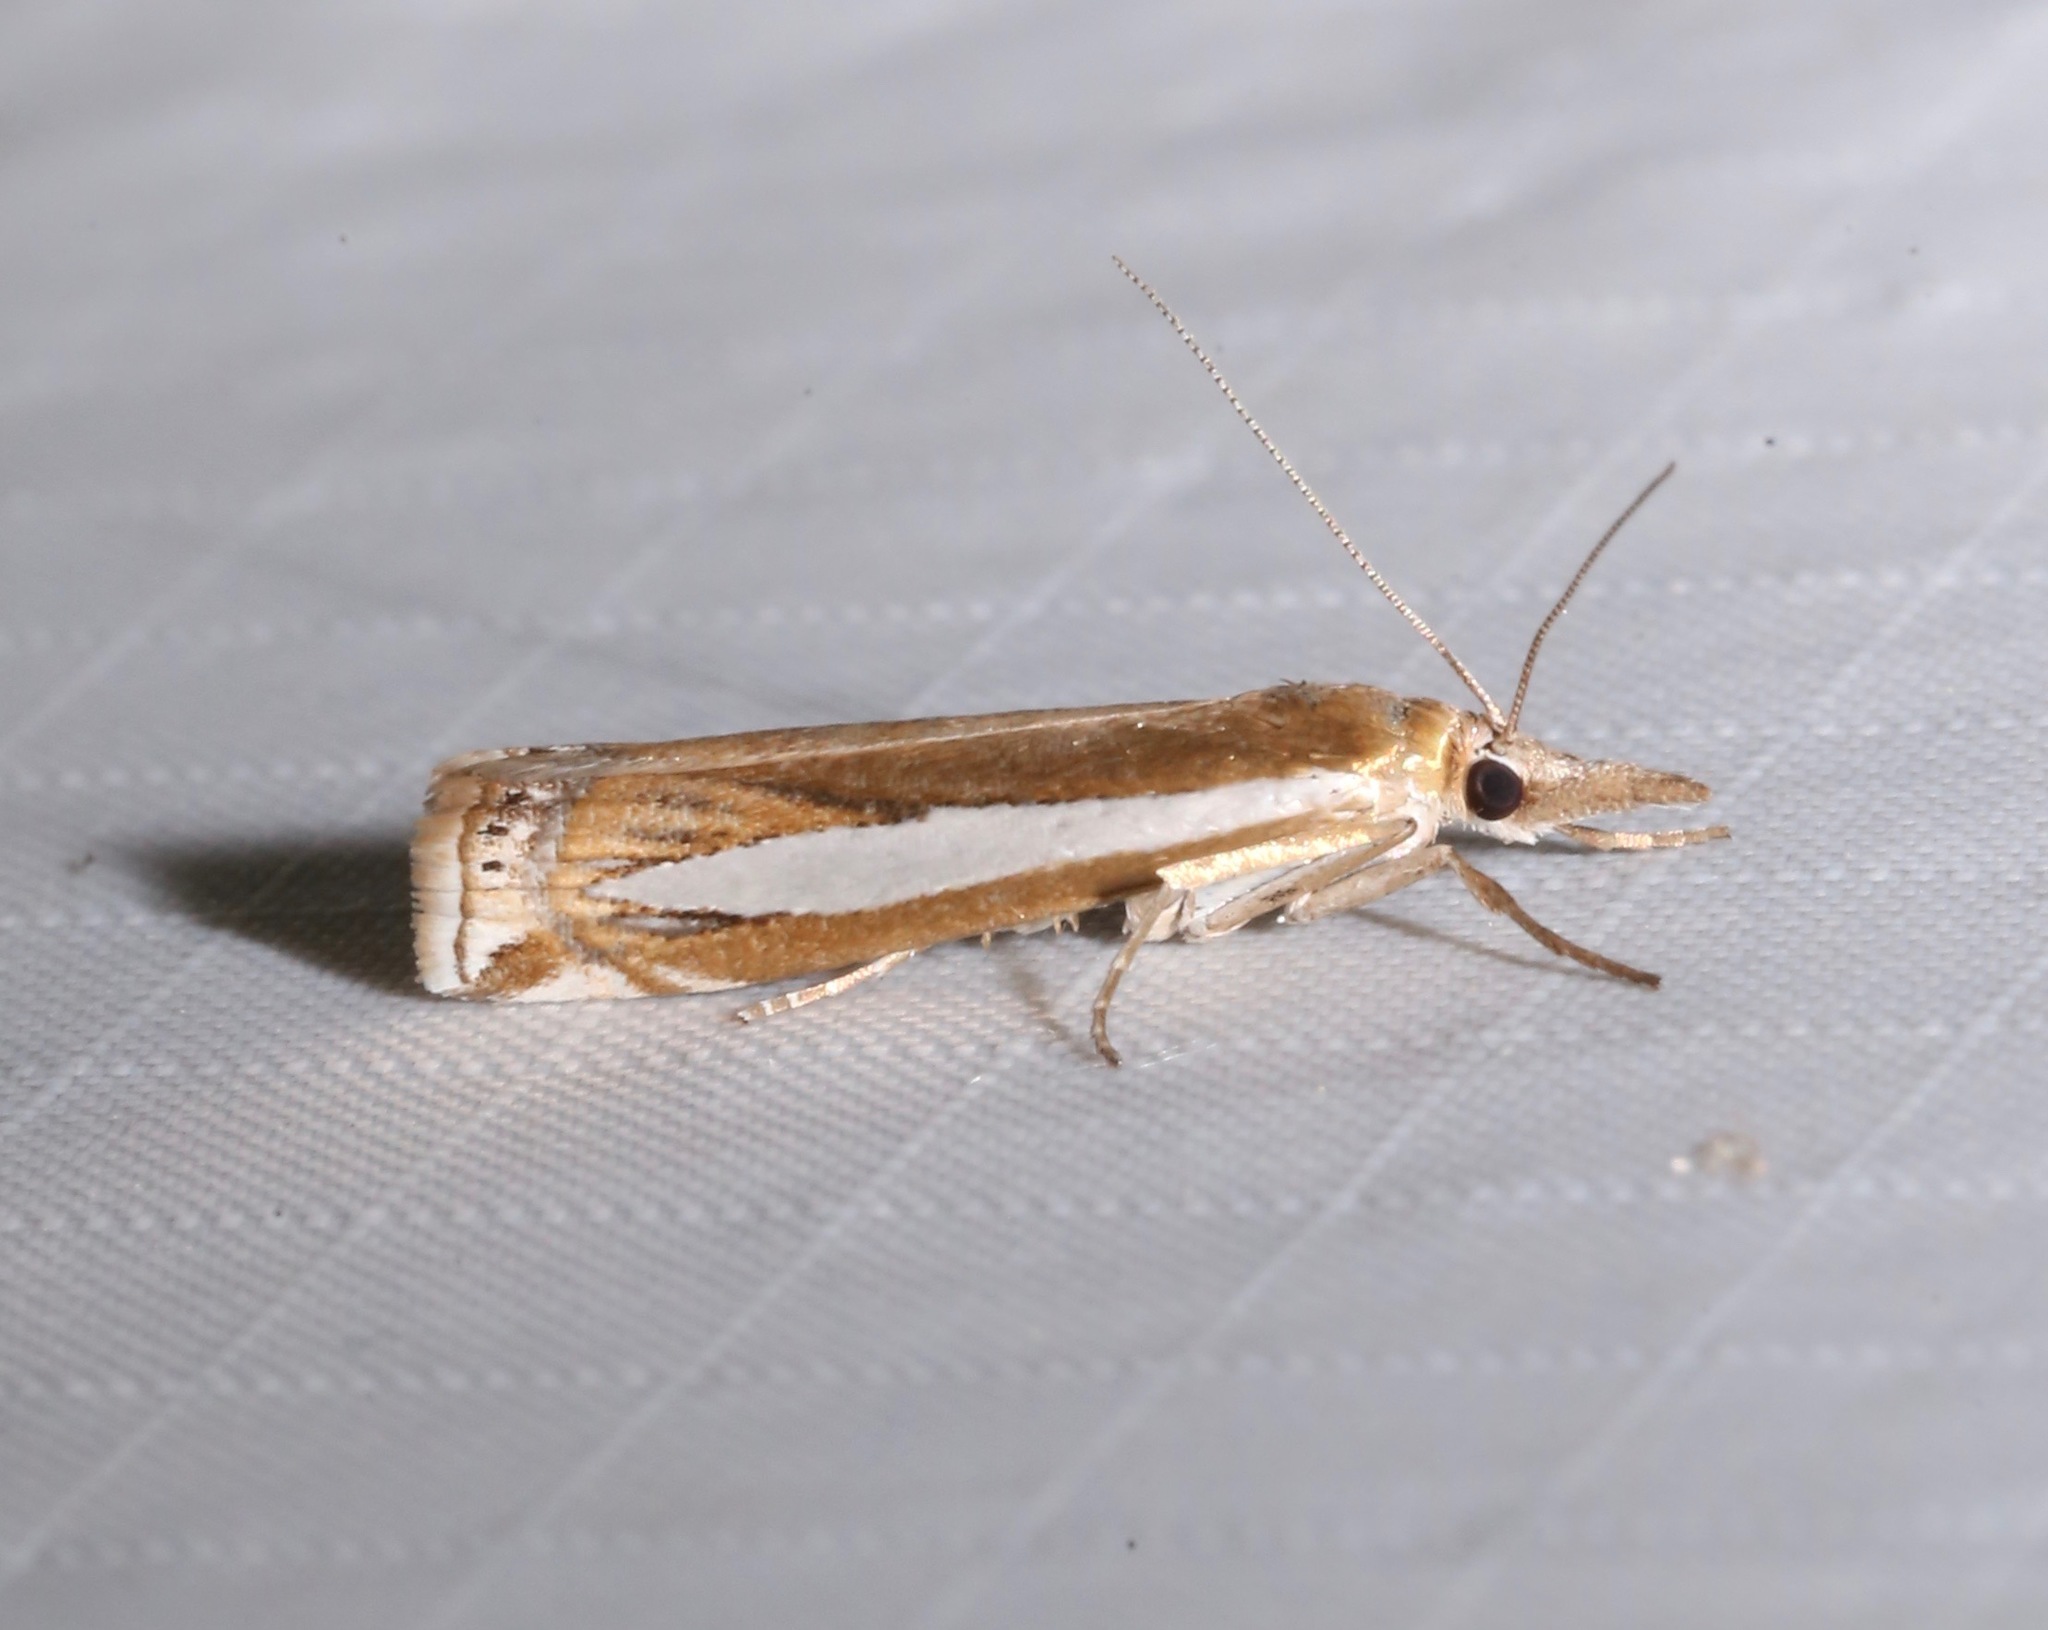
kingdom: Animalia
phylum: Arthropoda
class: Insecta
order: Lepidoptera
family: Crambidae
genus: Crambus
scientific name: Crambus praefectellus
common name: Common grass-veneer
